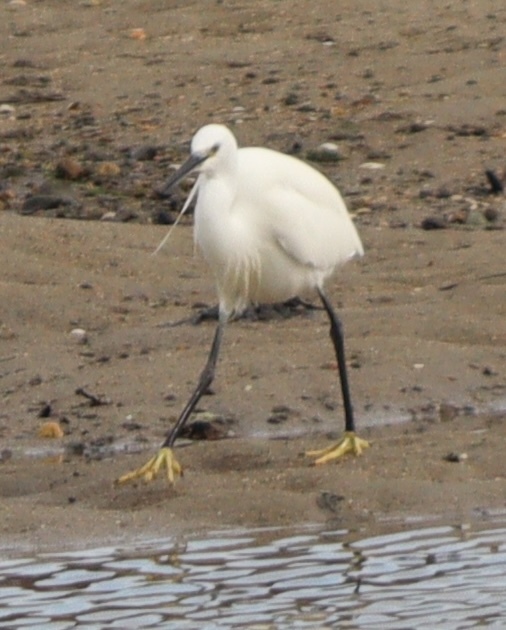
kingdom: Animalia
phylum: Chordata
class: Aves
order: Pelecaniformes
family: Ardeidae
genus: Egretta
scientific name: Egretta garzetta
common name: Little egret
